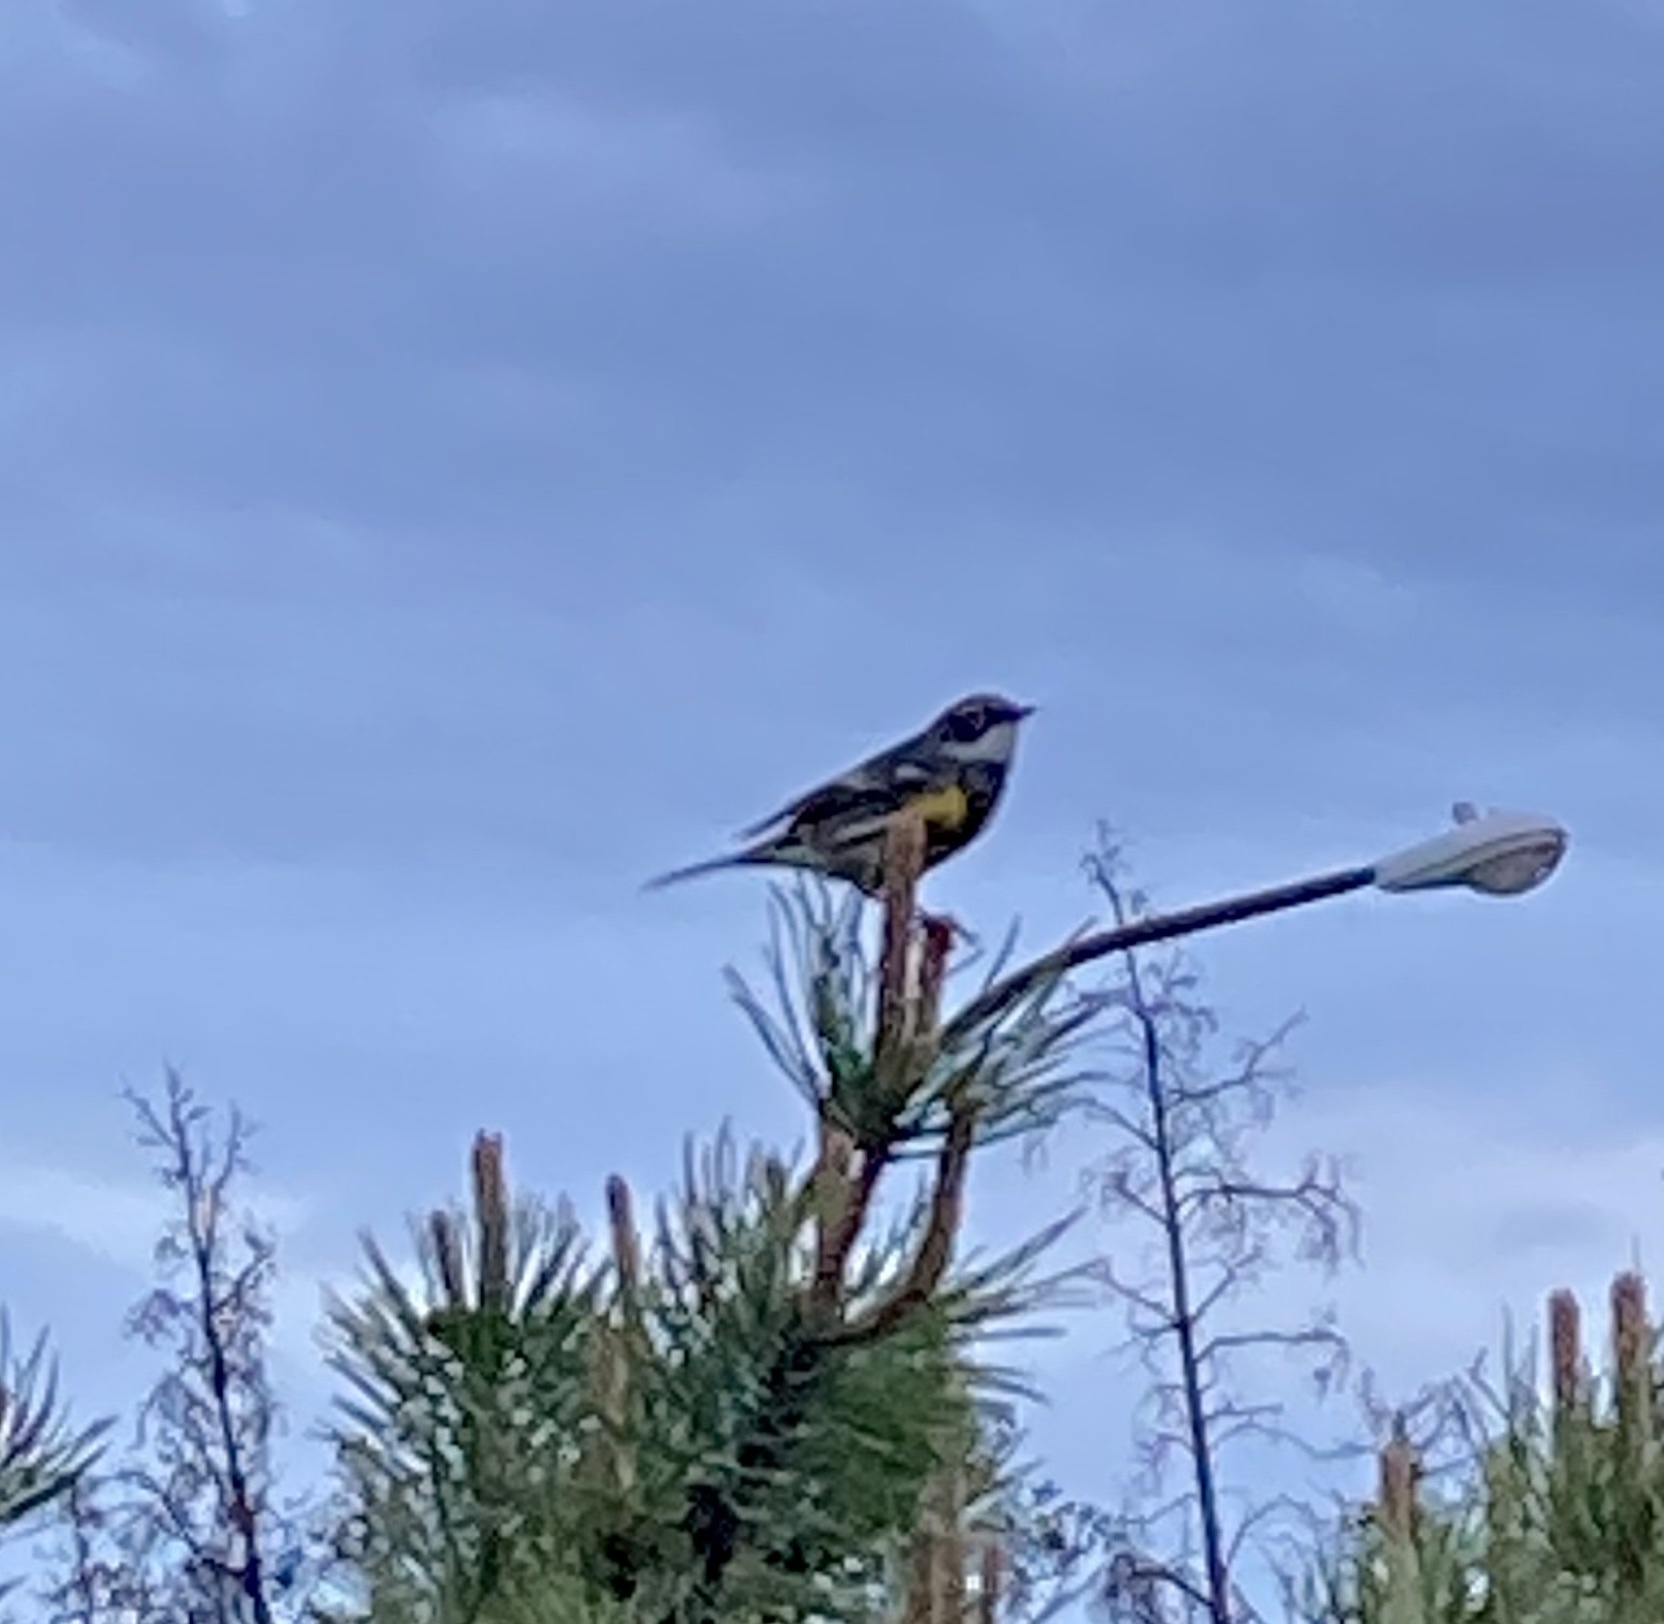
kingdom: Animalia
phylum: Chordata
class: Aves
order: Passeriformes
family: Parulidae
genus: Setophaga
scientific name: Setophaga coronata
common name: Myrtle warbler
